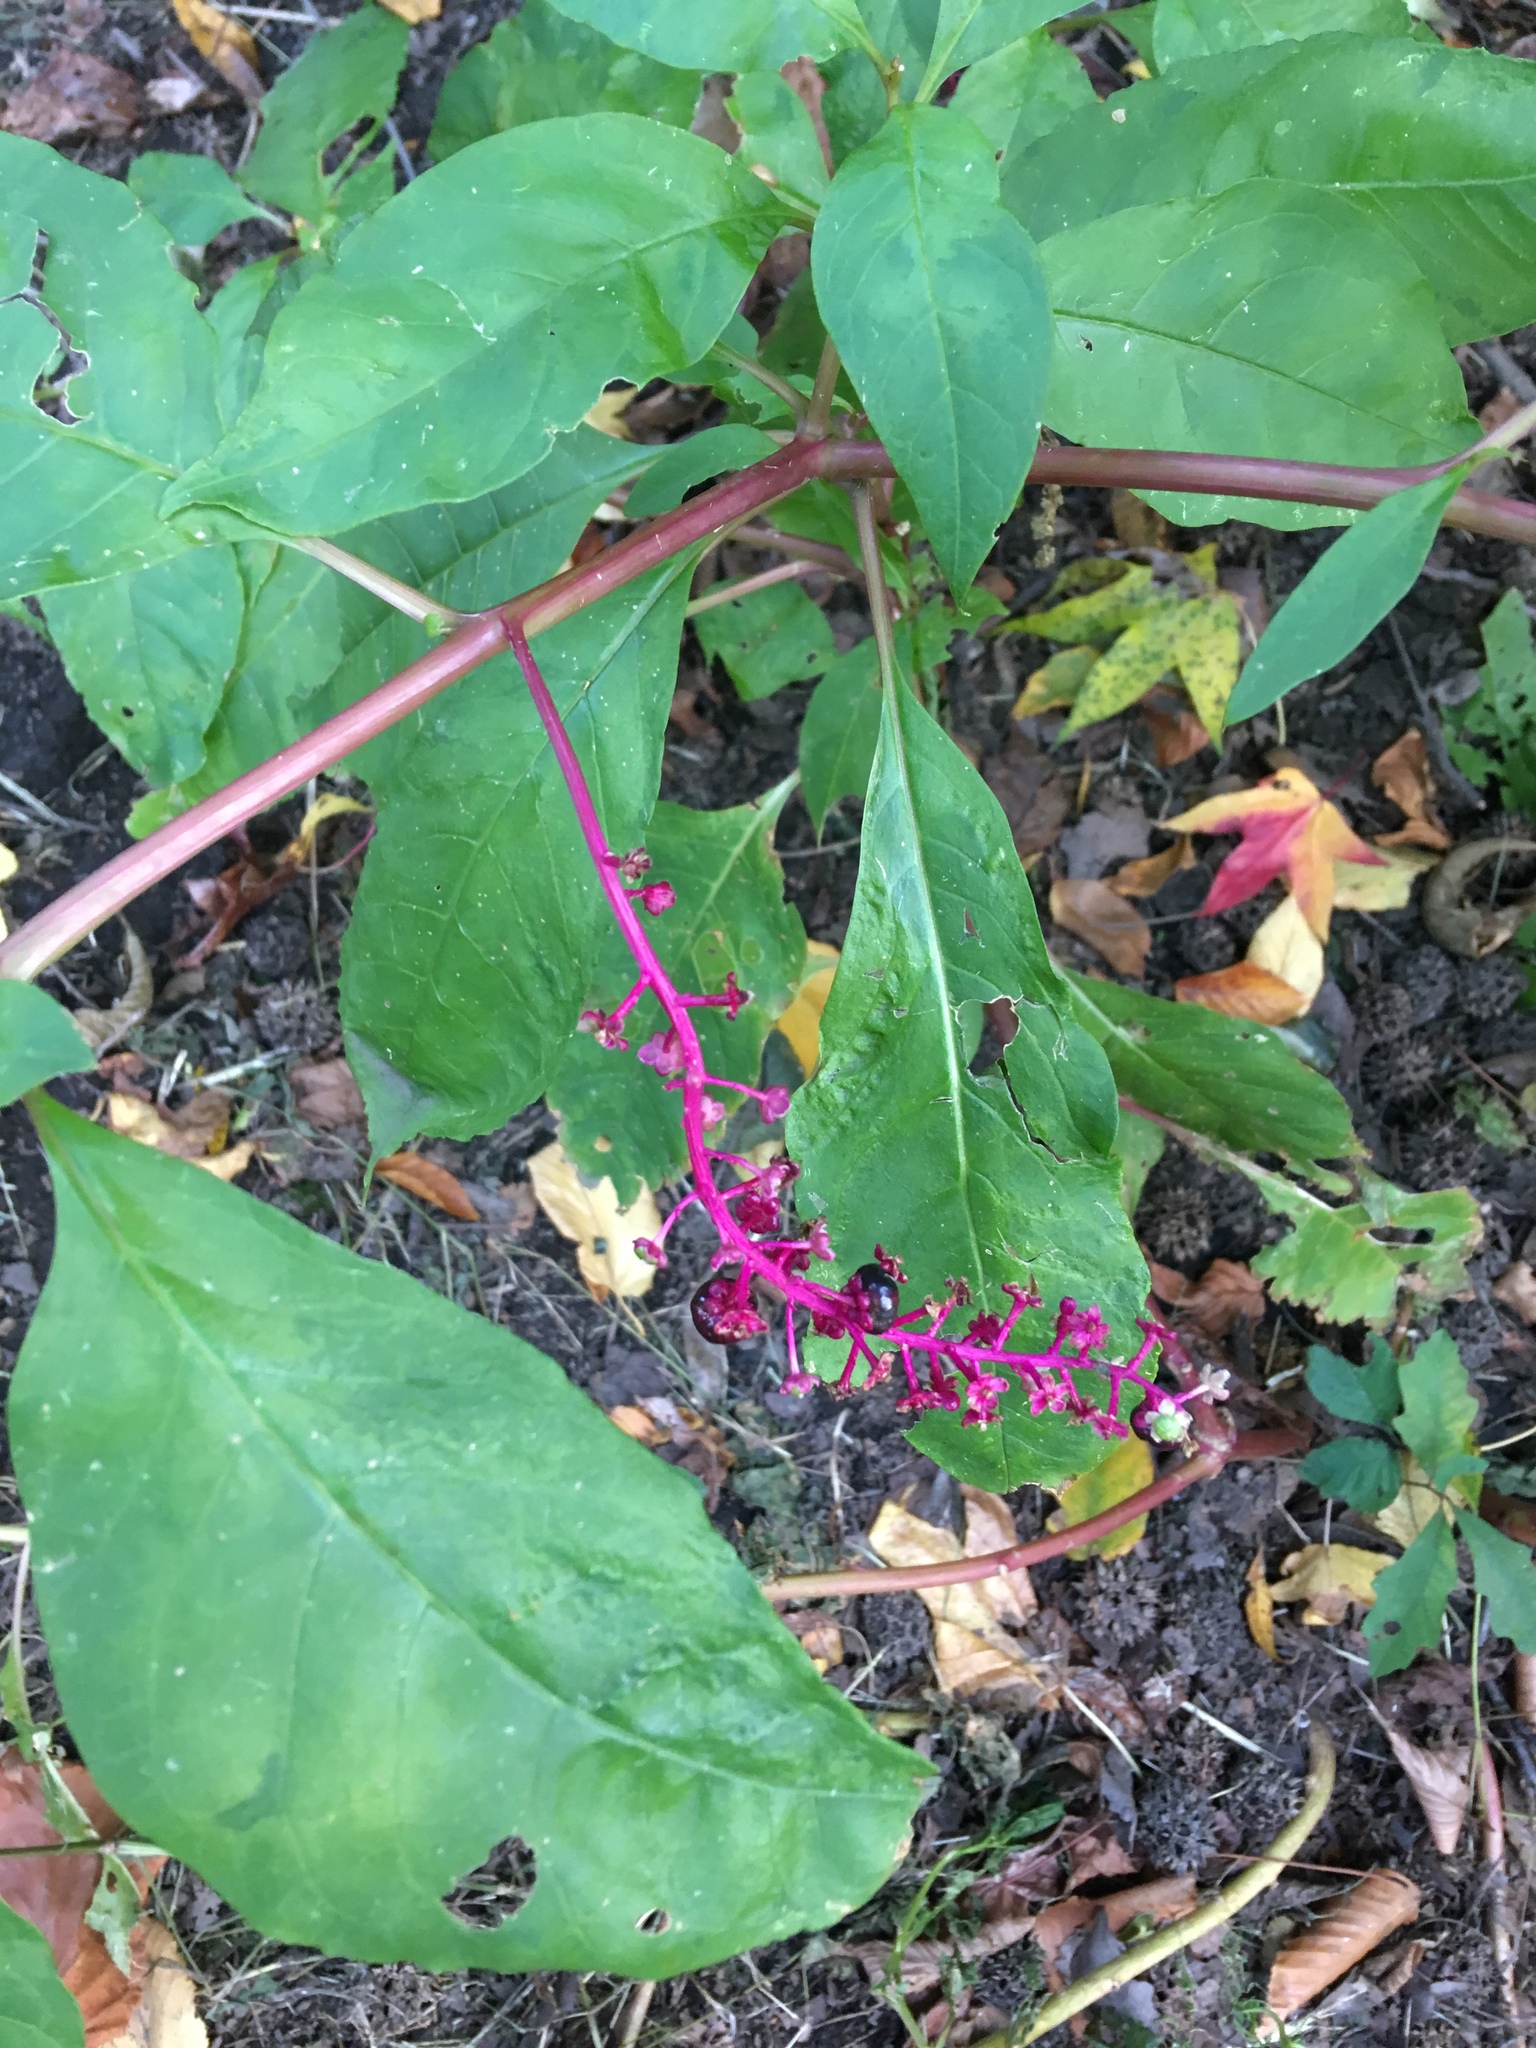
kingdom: Plantae
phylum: Tracheophyta
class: Magnoliopsida
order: Caryophyllales
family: Phytolaccaceae
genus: Phytolacca
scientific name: Phytolacca americana
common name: American pokeweed
